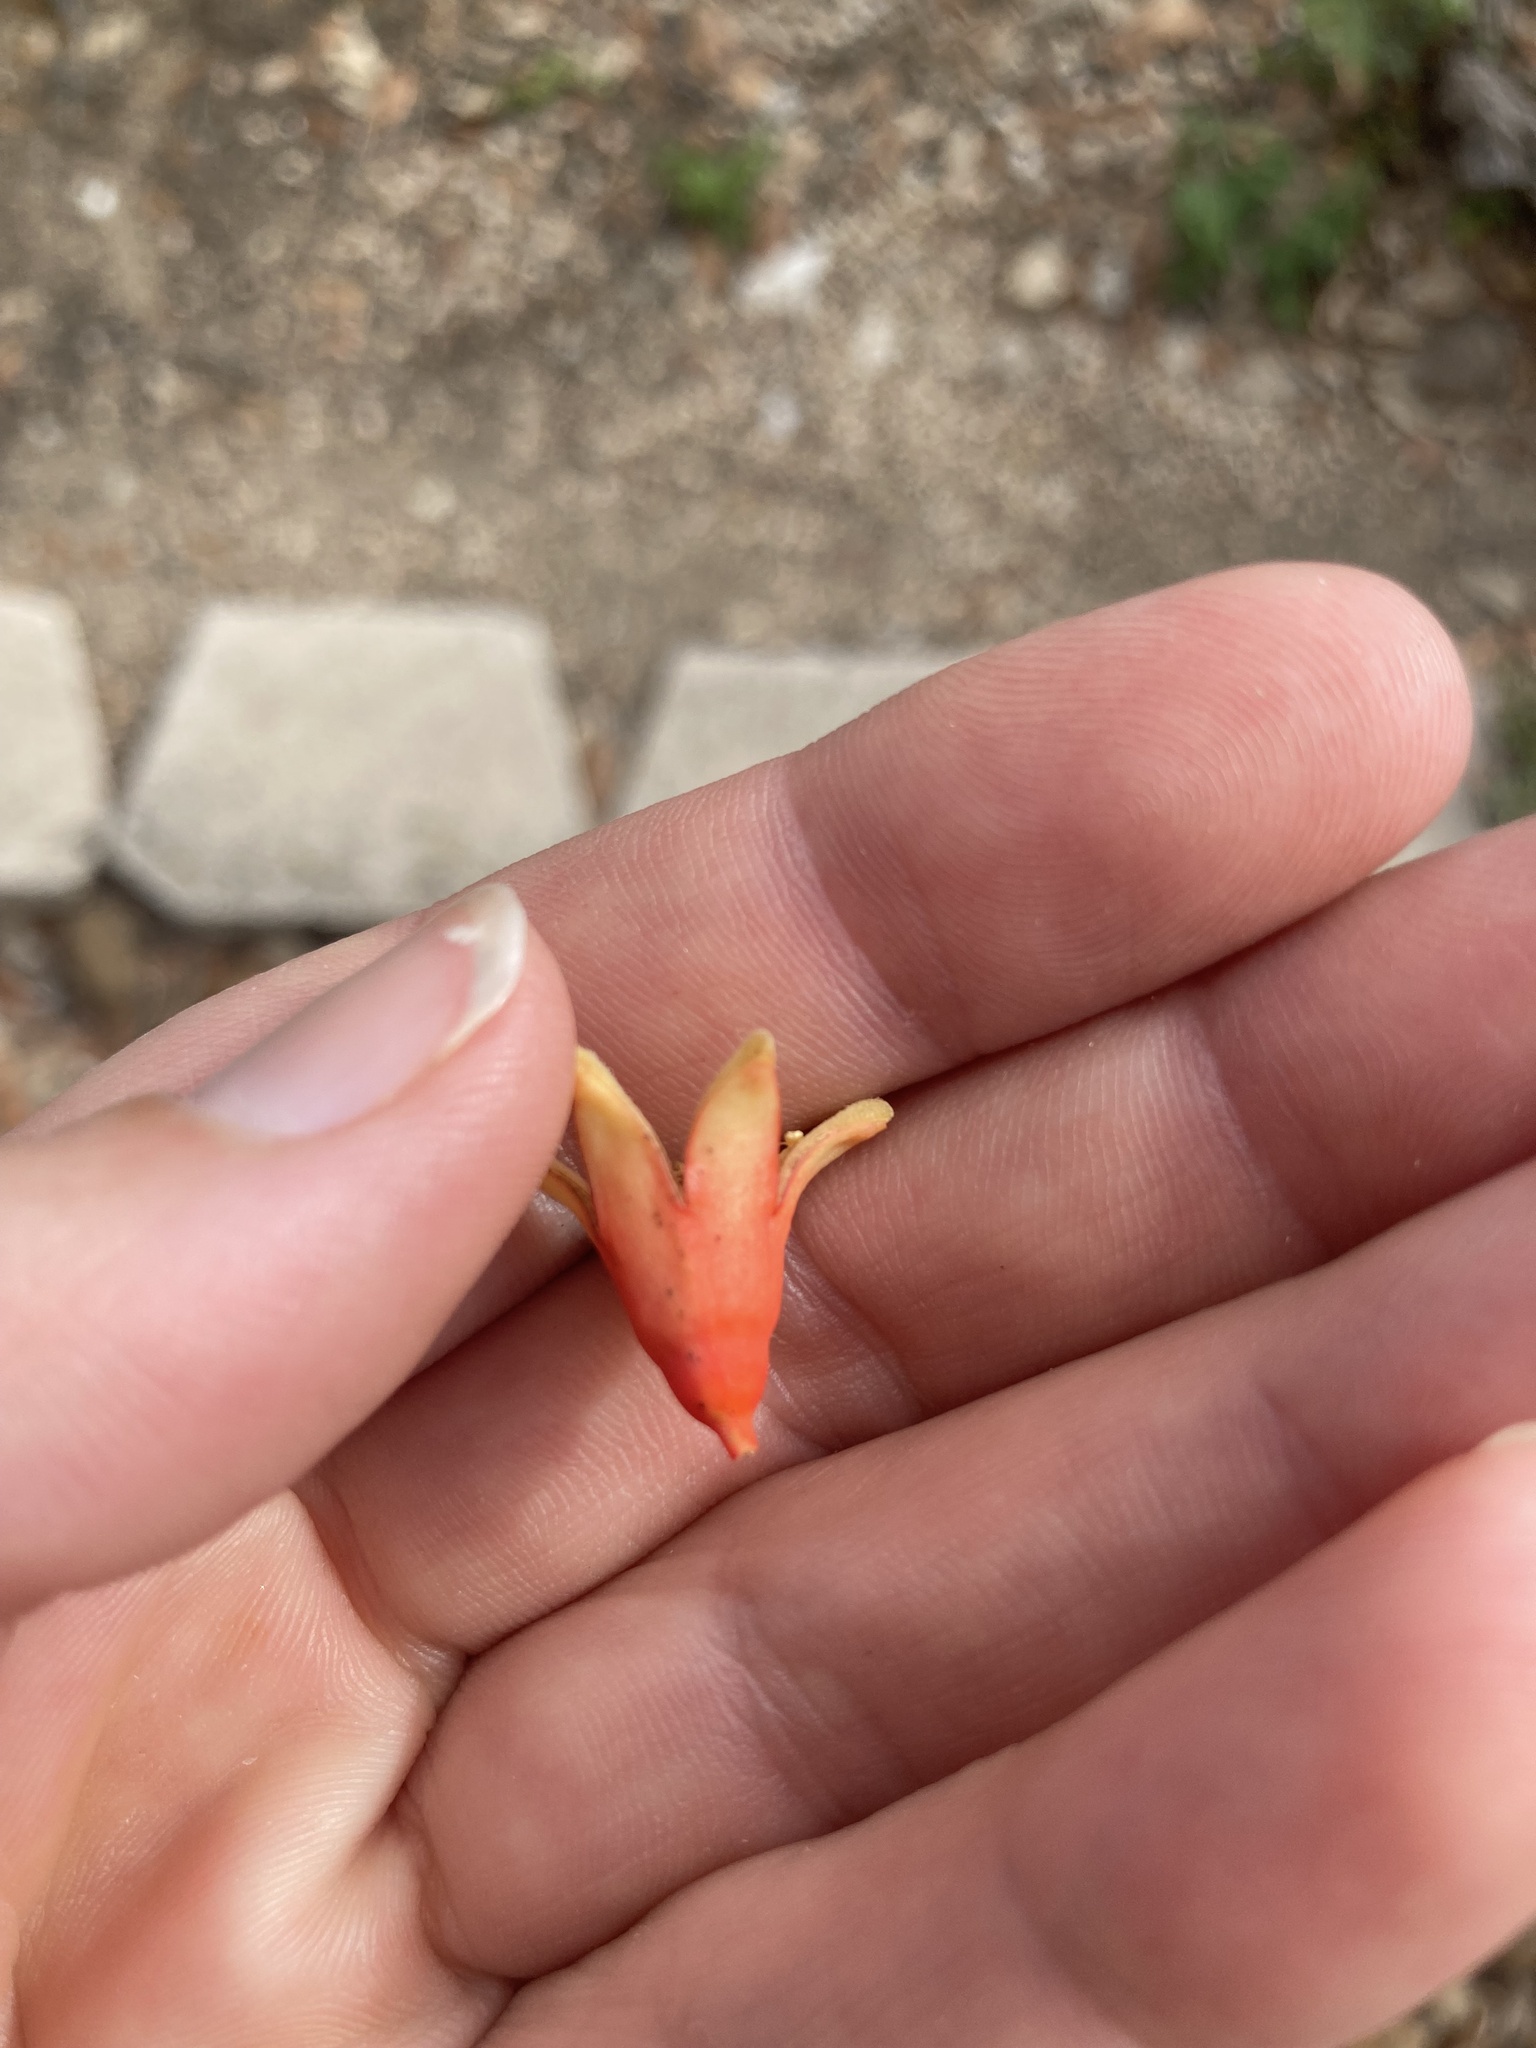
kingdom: Plantae
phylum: Tracheophyta
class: Magnoliopsida
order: Myrtales
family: Lythraceae
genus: Punica
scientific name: Punica granatum
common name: Pomegranate
